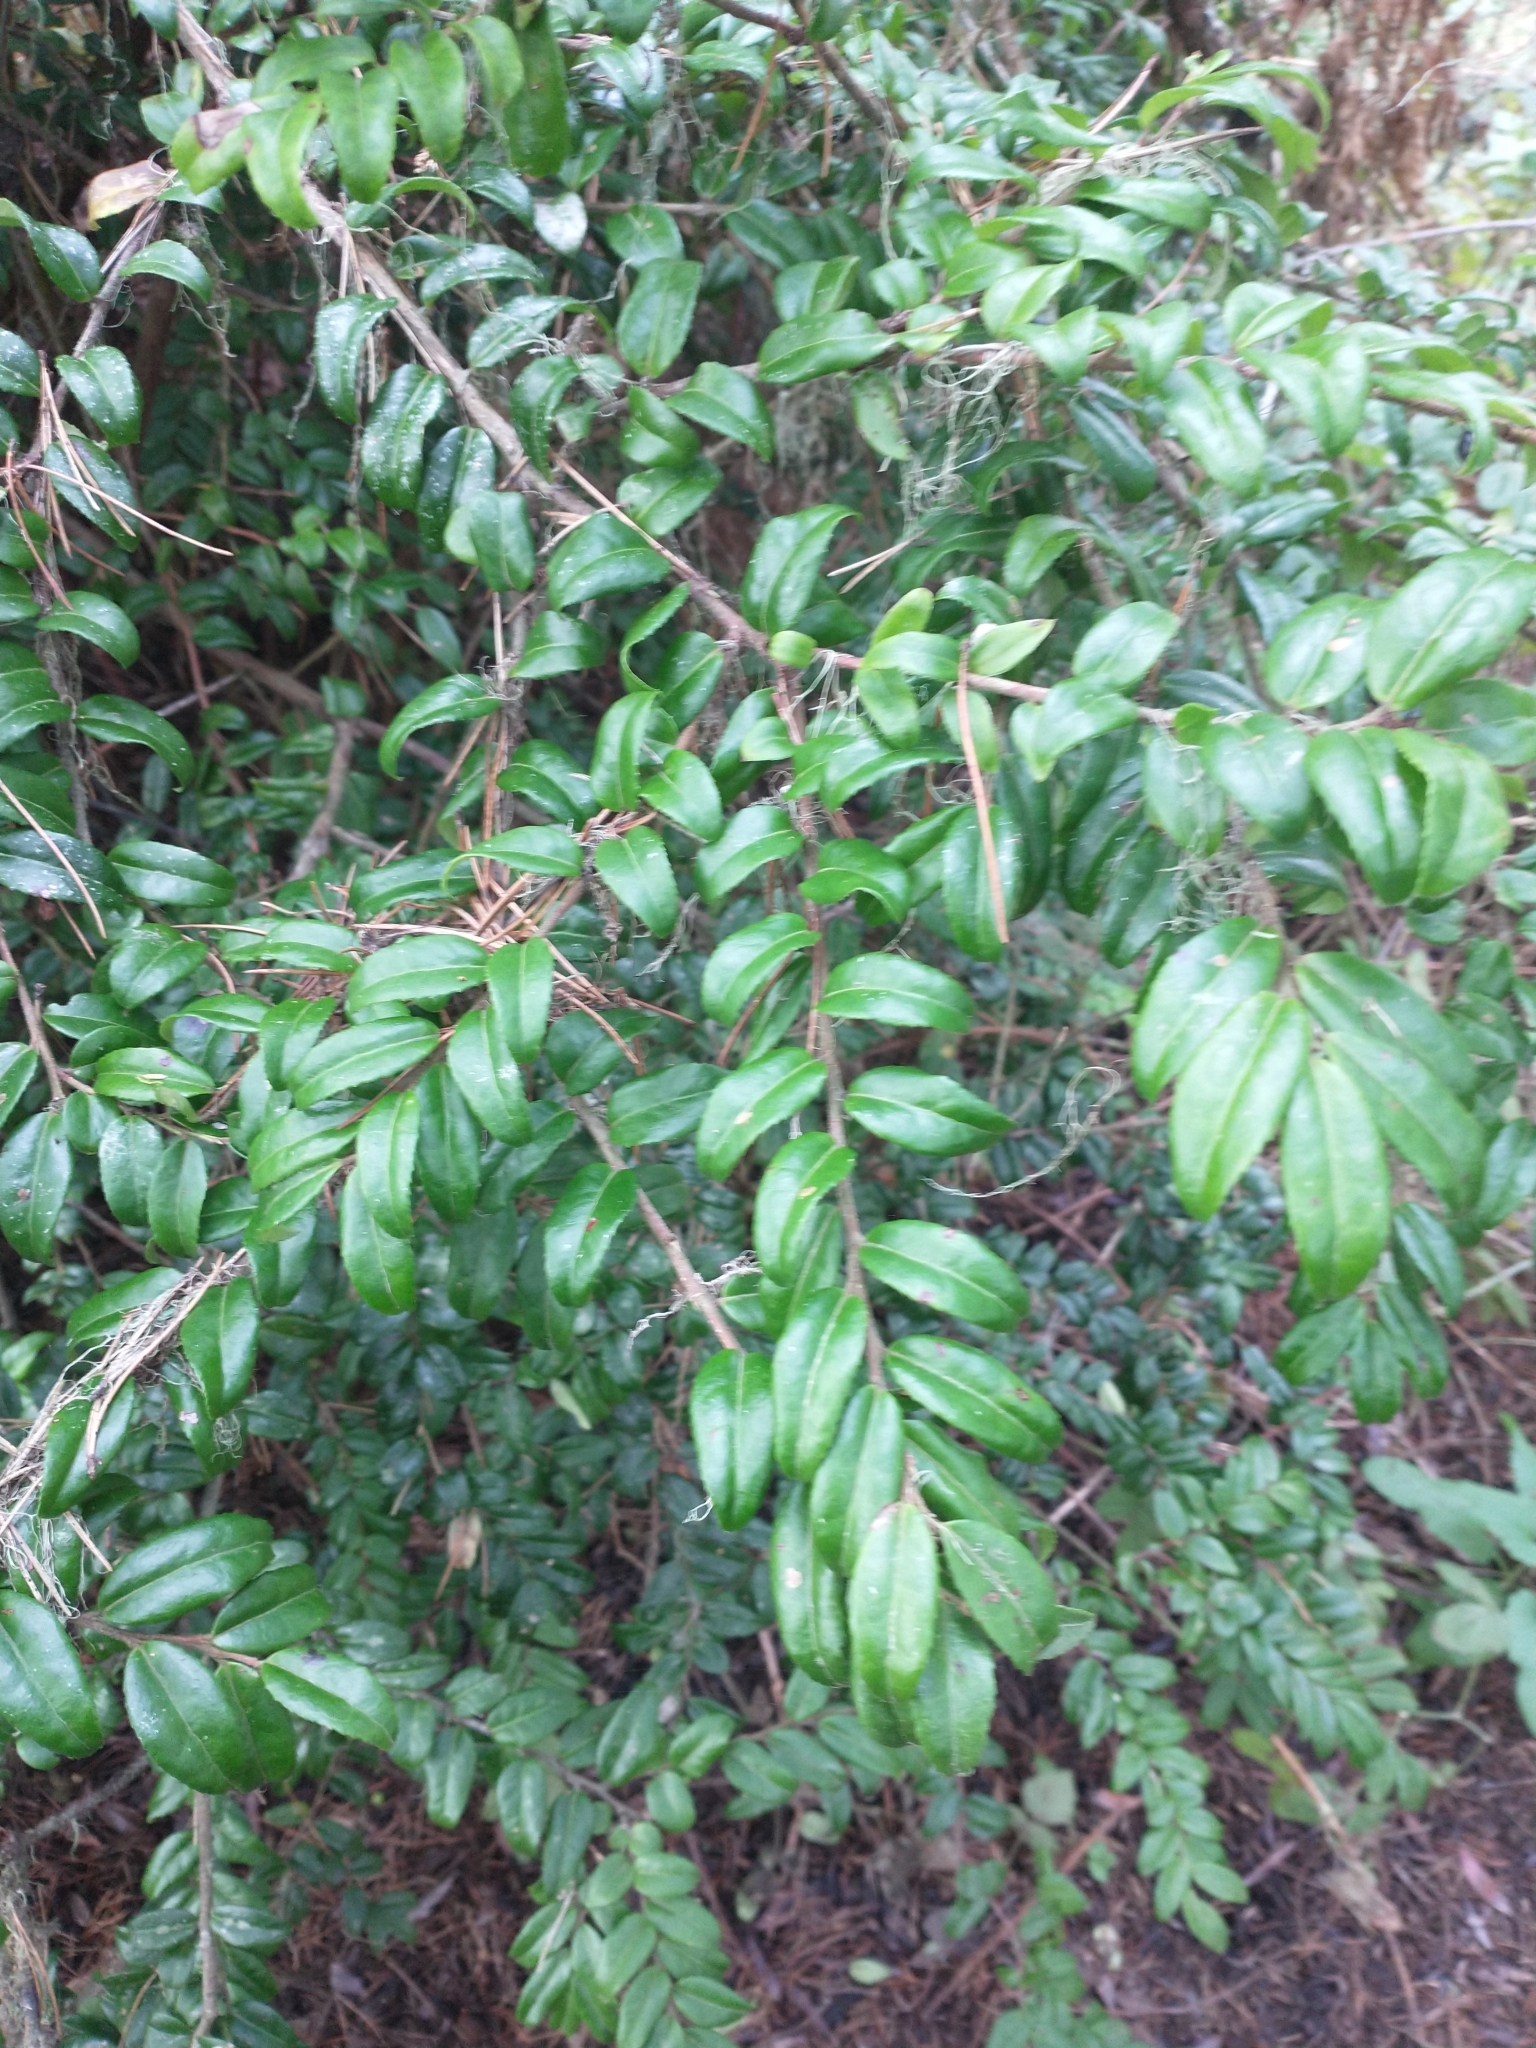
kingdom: Plantae
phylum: Tracheophyta
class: Magnoliopsida
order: Ericales
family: Ericaceae
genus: Vaccinium
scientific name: Vaccinium ovatum
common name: California-huckleberry
